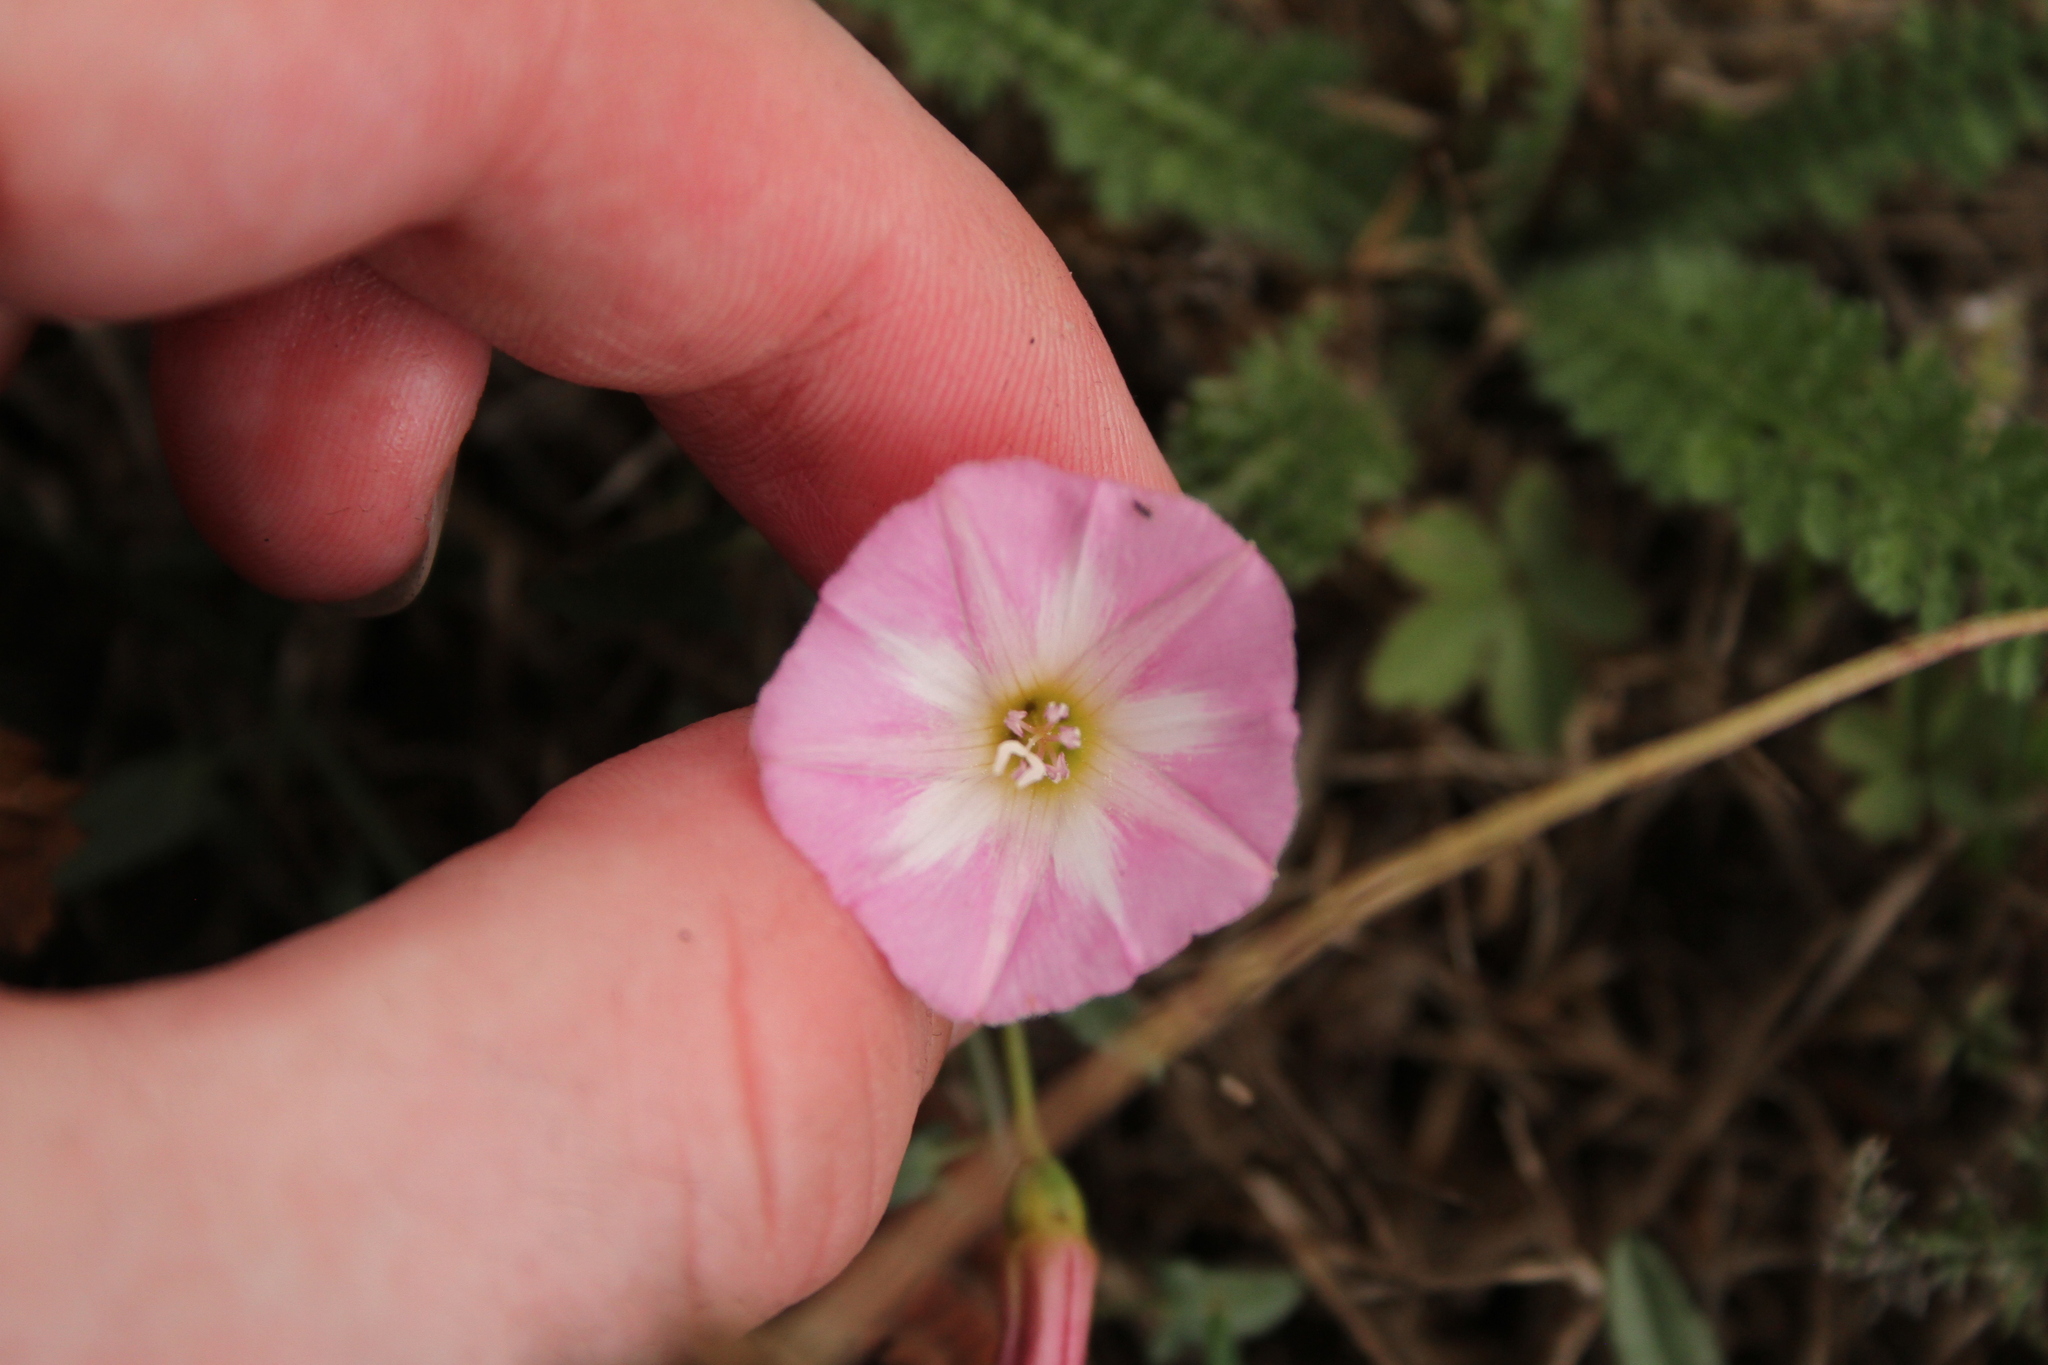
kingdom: Plantae
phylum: Tracheophyta
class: Magnoliopsida
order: Solanales
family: Convolvulaceae
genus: Convolvulus
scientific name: Convolvulus arvensis
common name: Field bindweed
